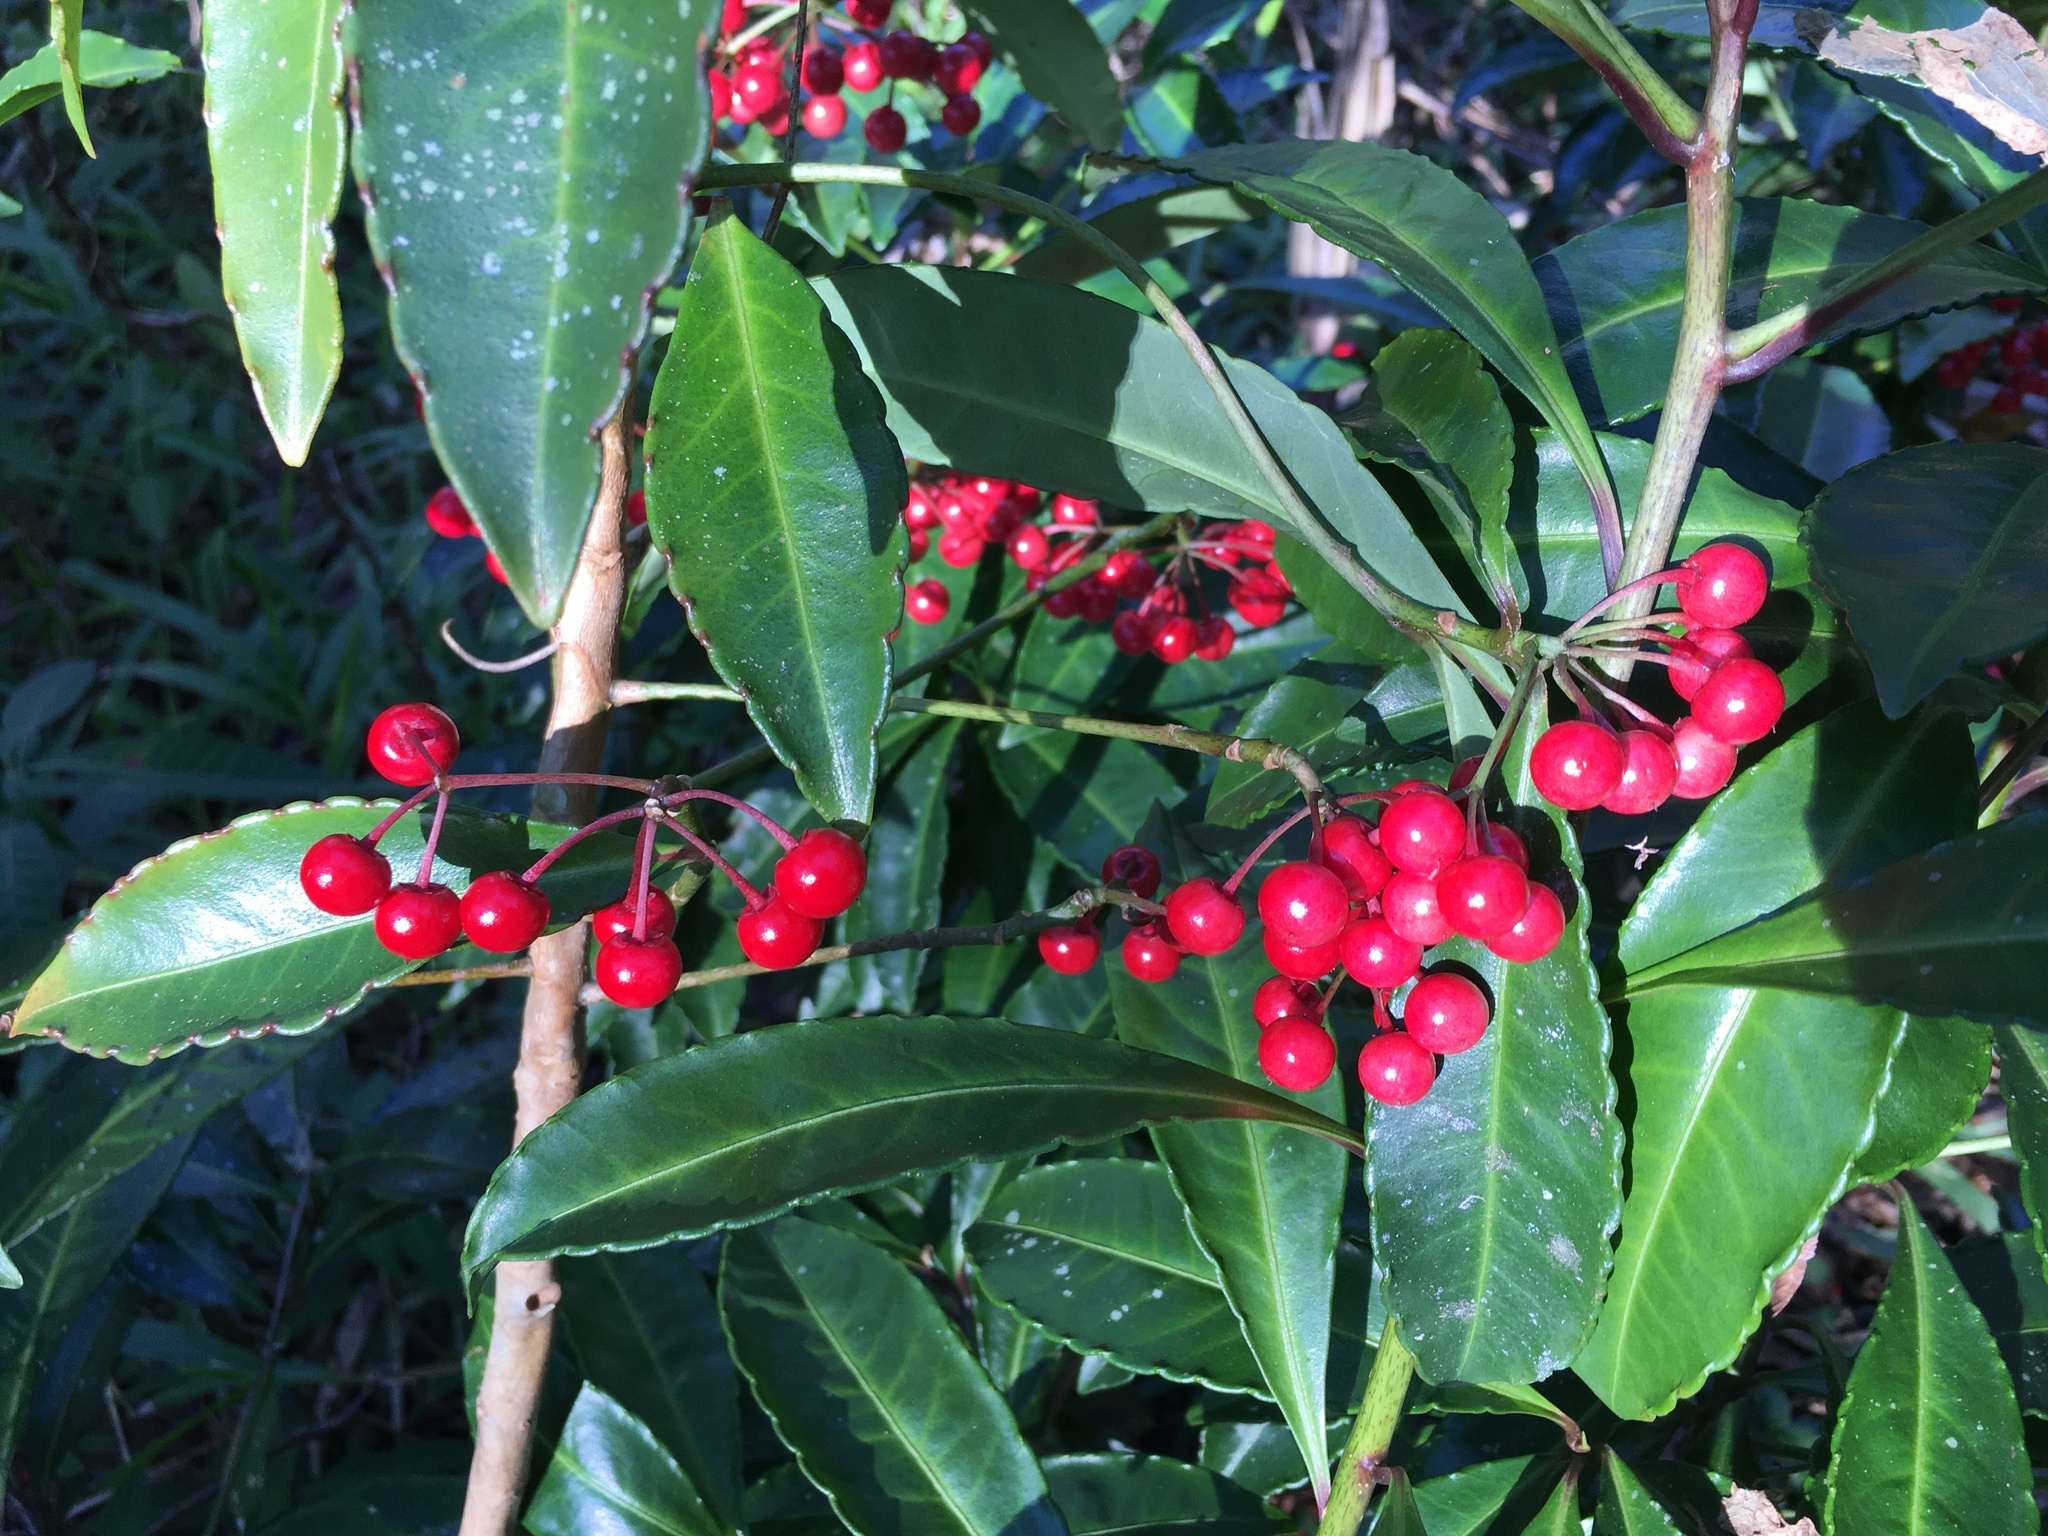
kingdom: Plantae
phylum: Tracheophyta
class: Magnoliopsida
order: Ericales
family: Primulaceae
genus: Ardisia
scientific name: Ardisia crenata
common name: Hen's eyes
